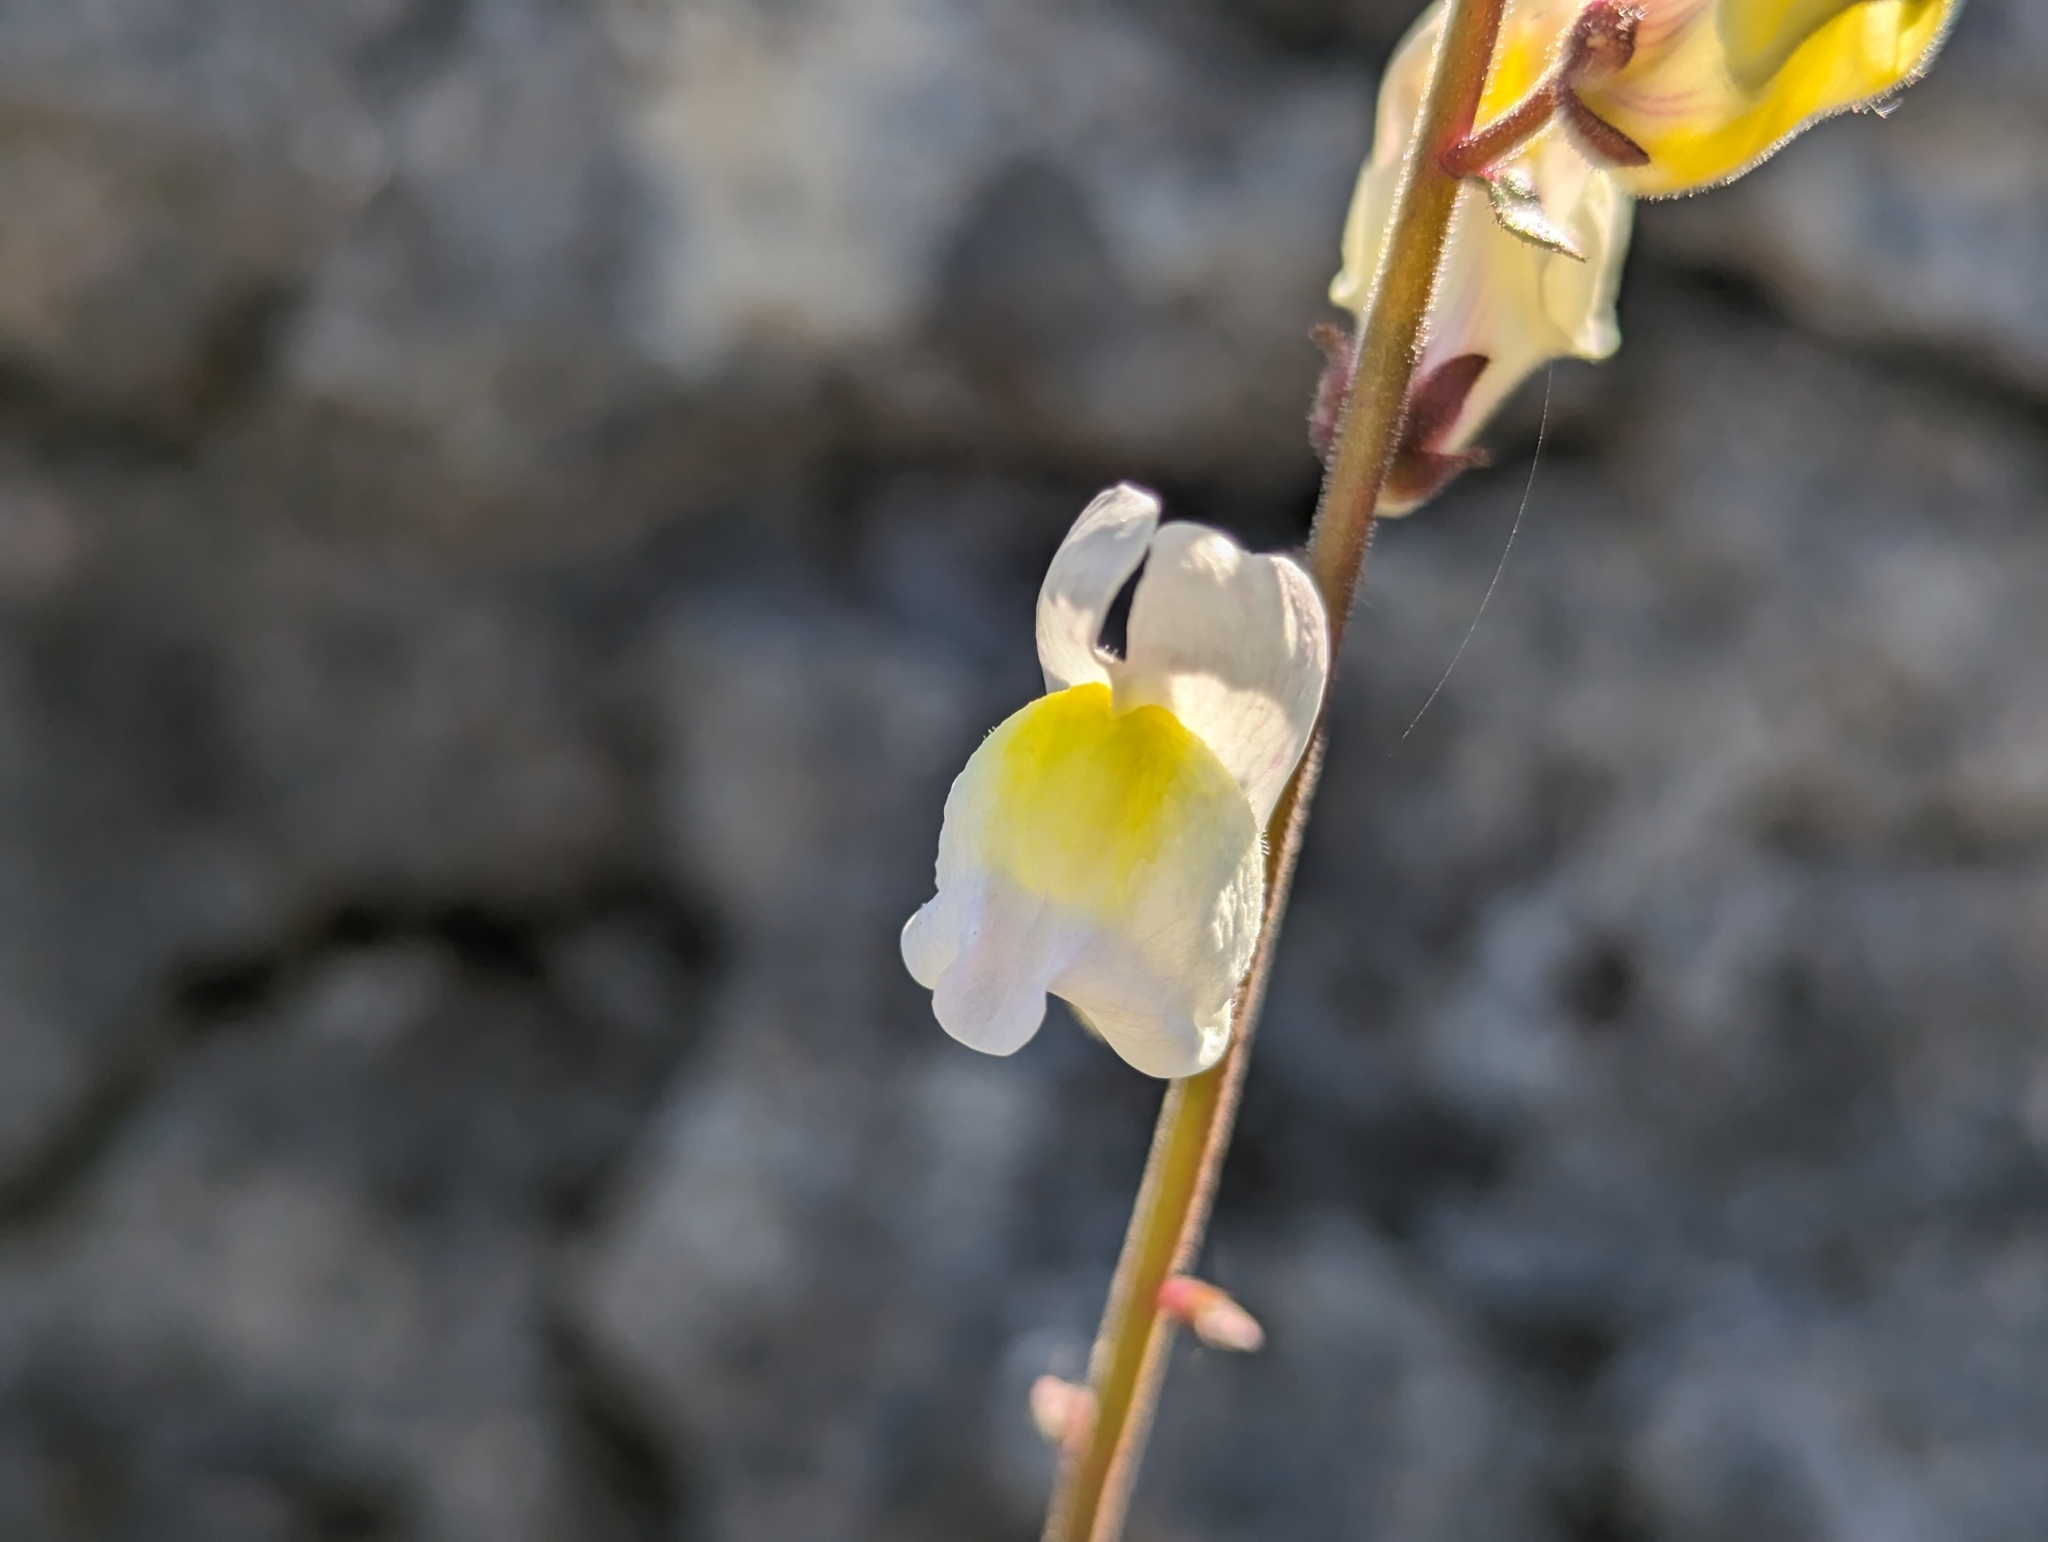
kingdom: Plantae
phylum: Tracheophyta
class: Magnoliopsida
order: Lamiales
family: Plantaginaceae
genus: Antirrhinum
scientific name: Antirrhinum onubense
